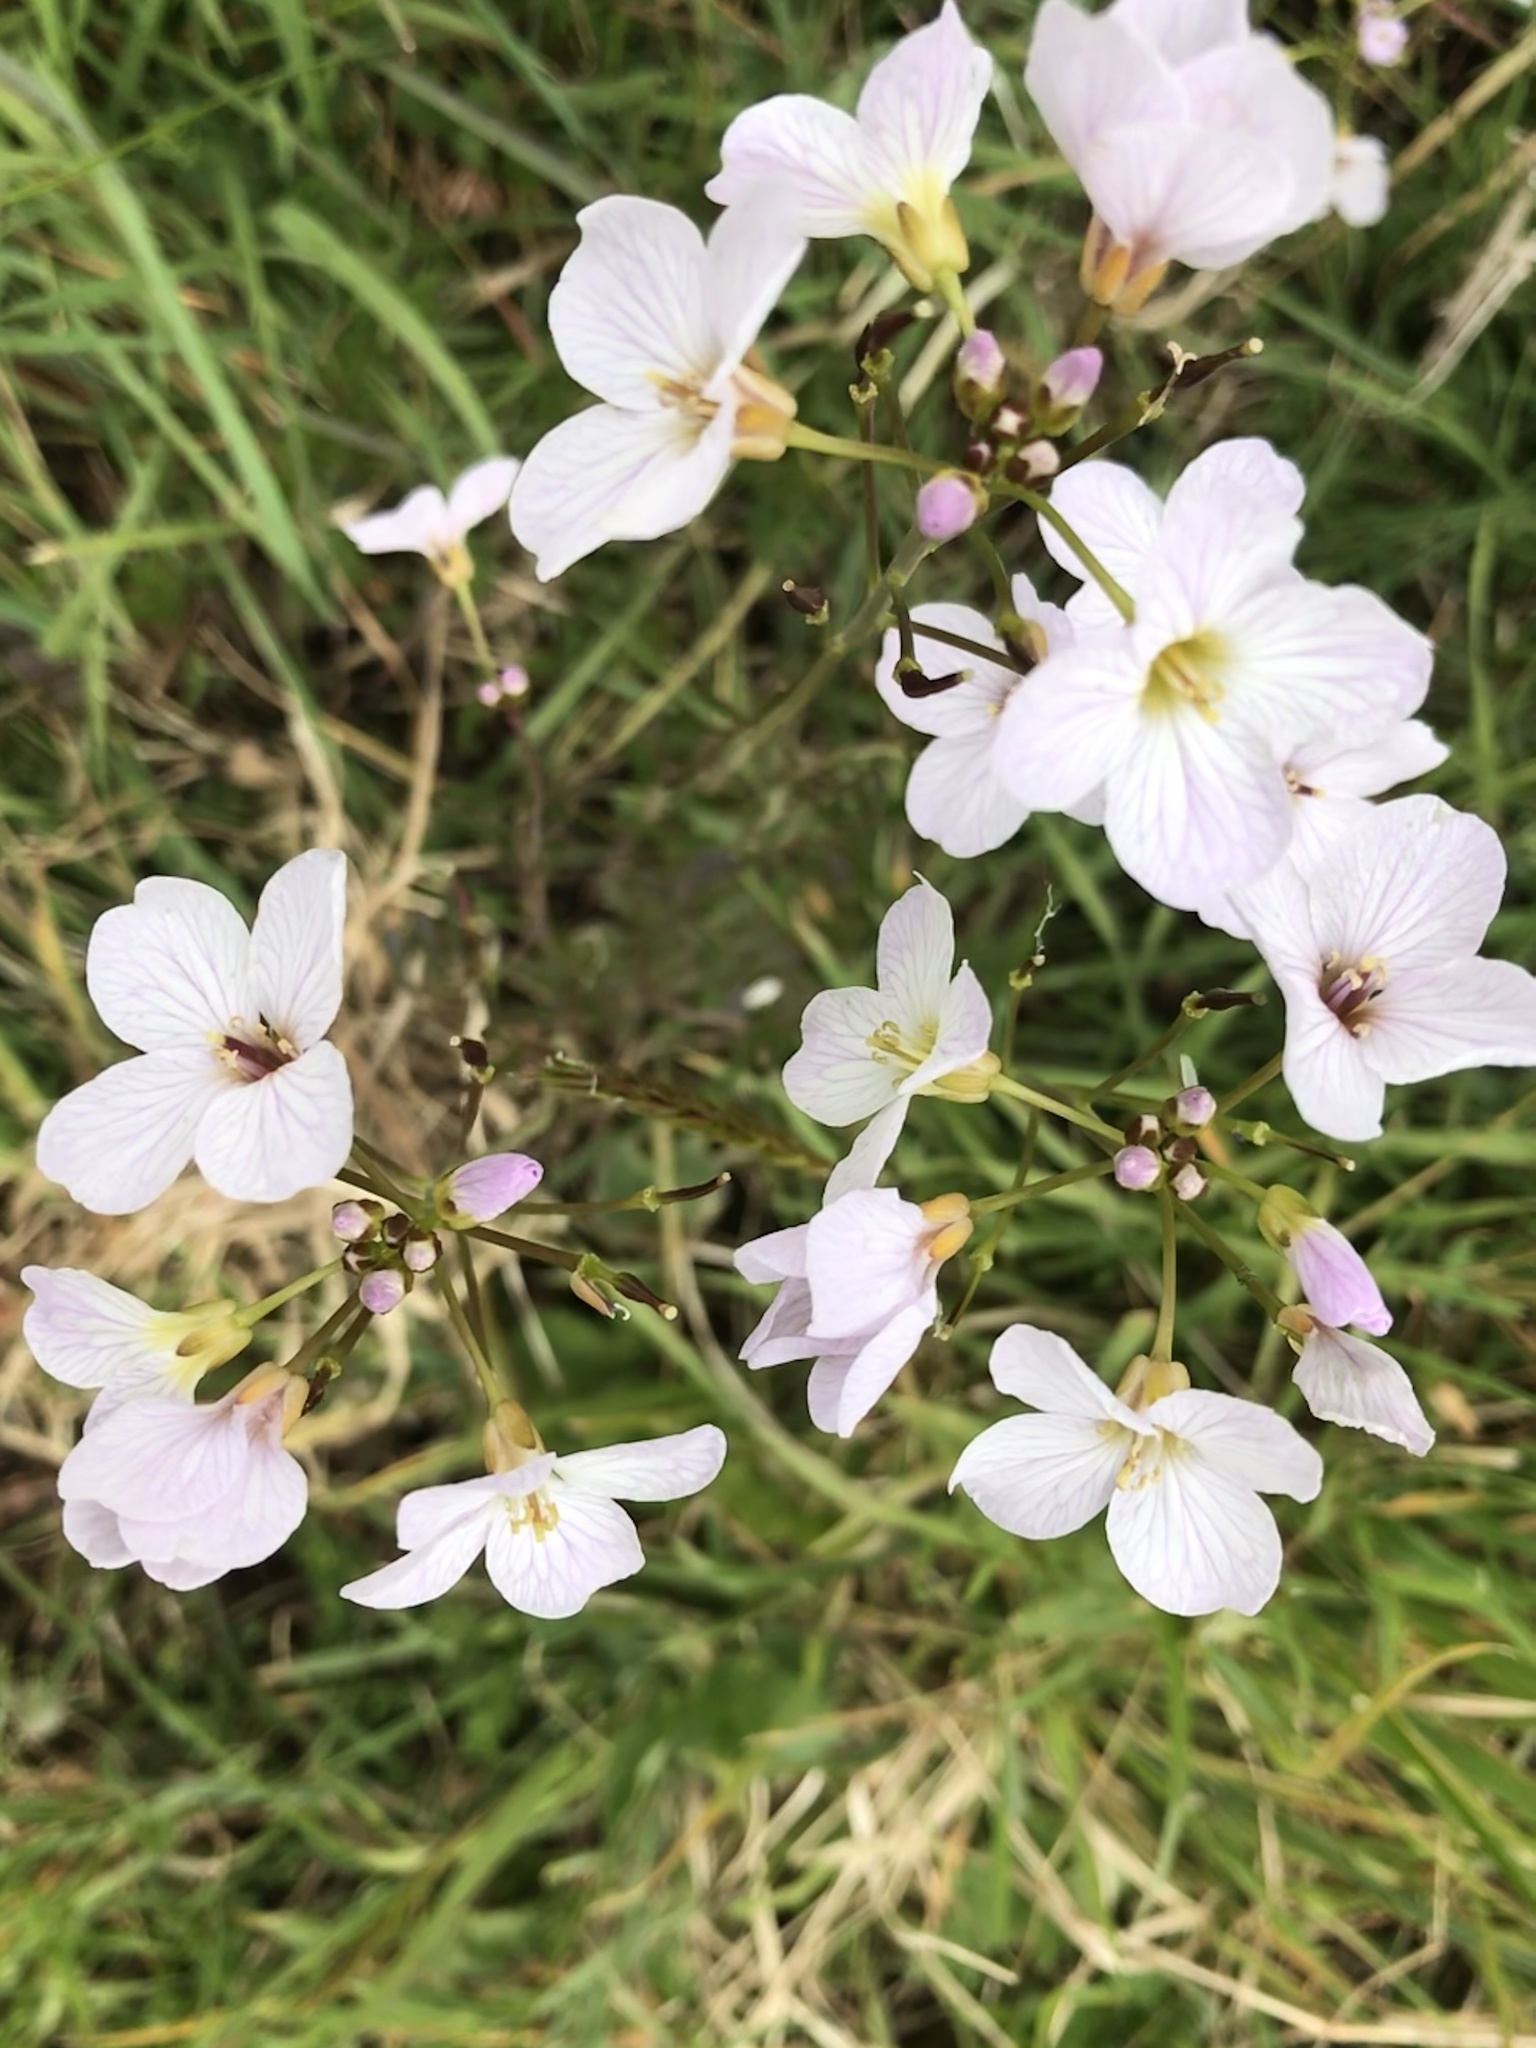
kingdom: Plantae
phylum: Tracheophyta
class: Magnoliopsida
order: Brassicales
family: Brassicaceae
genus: Cardamine
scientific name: Cardamine pratensis
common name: Cuckoo flower
